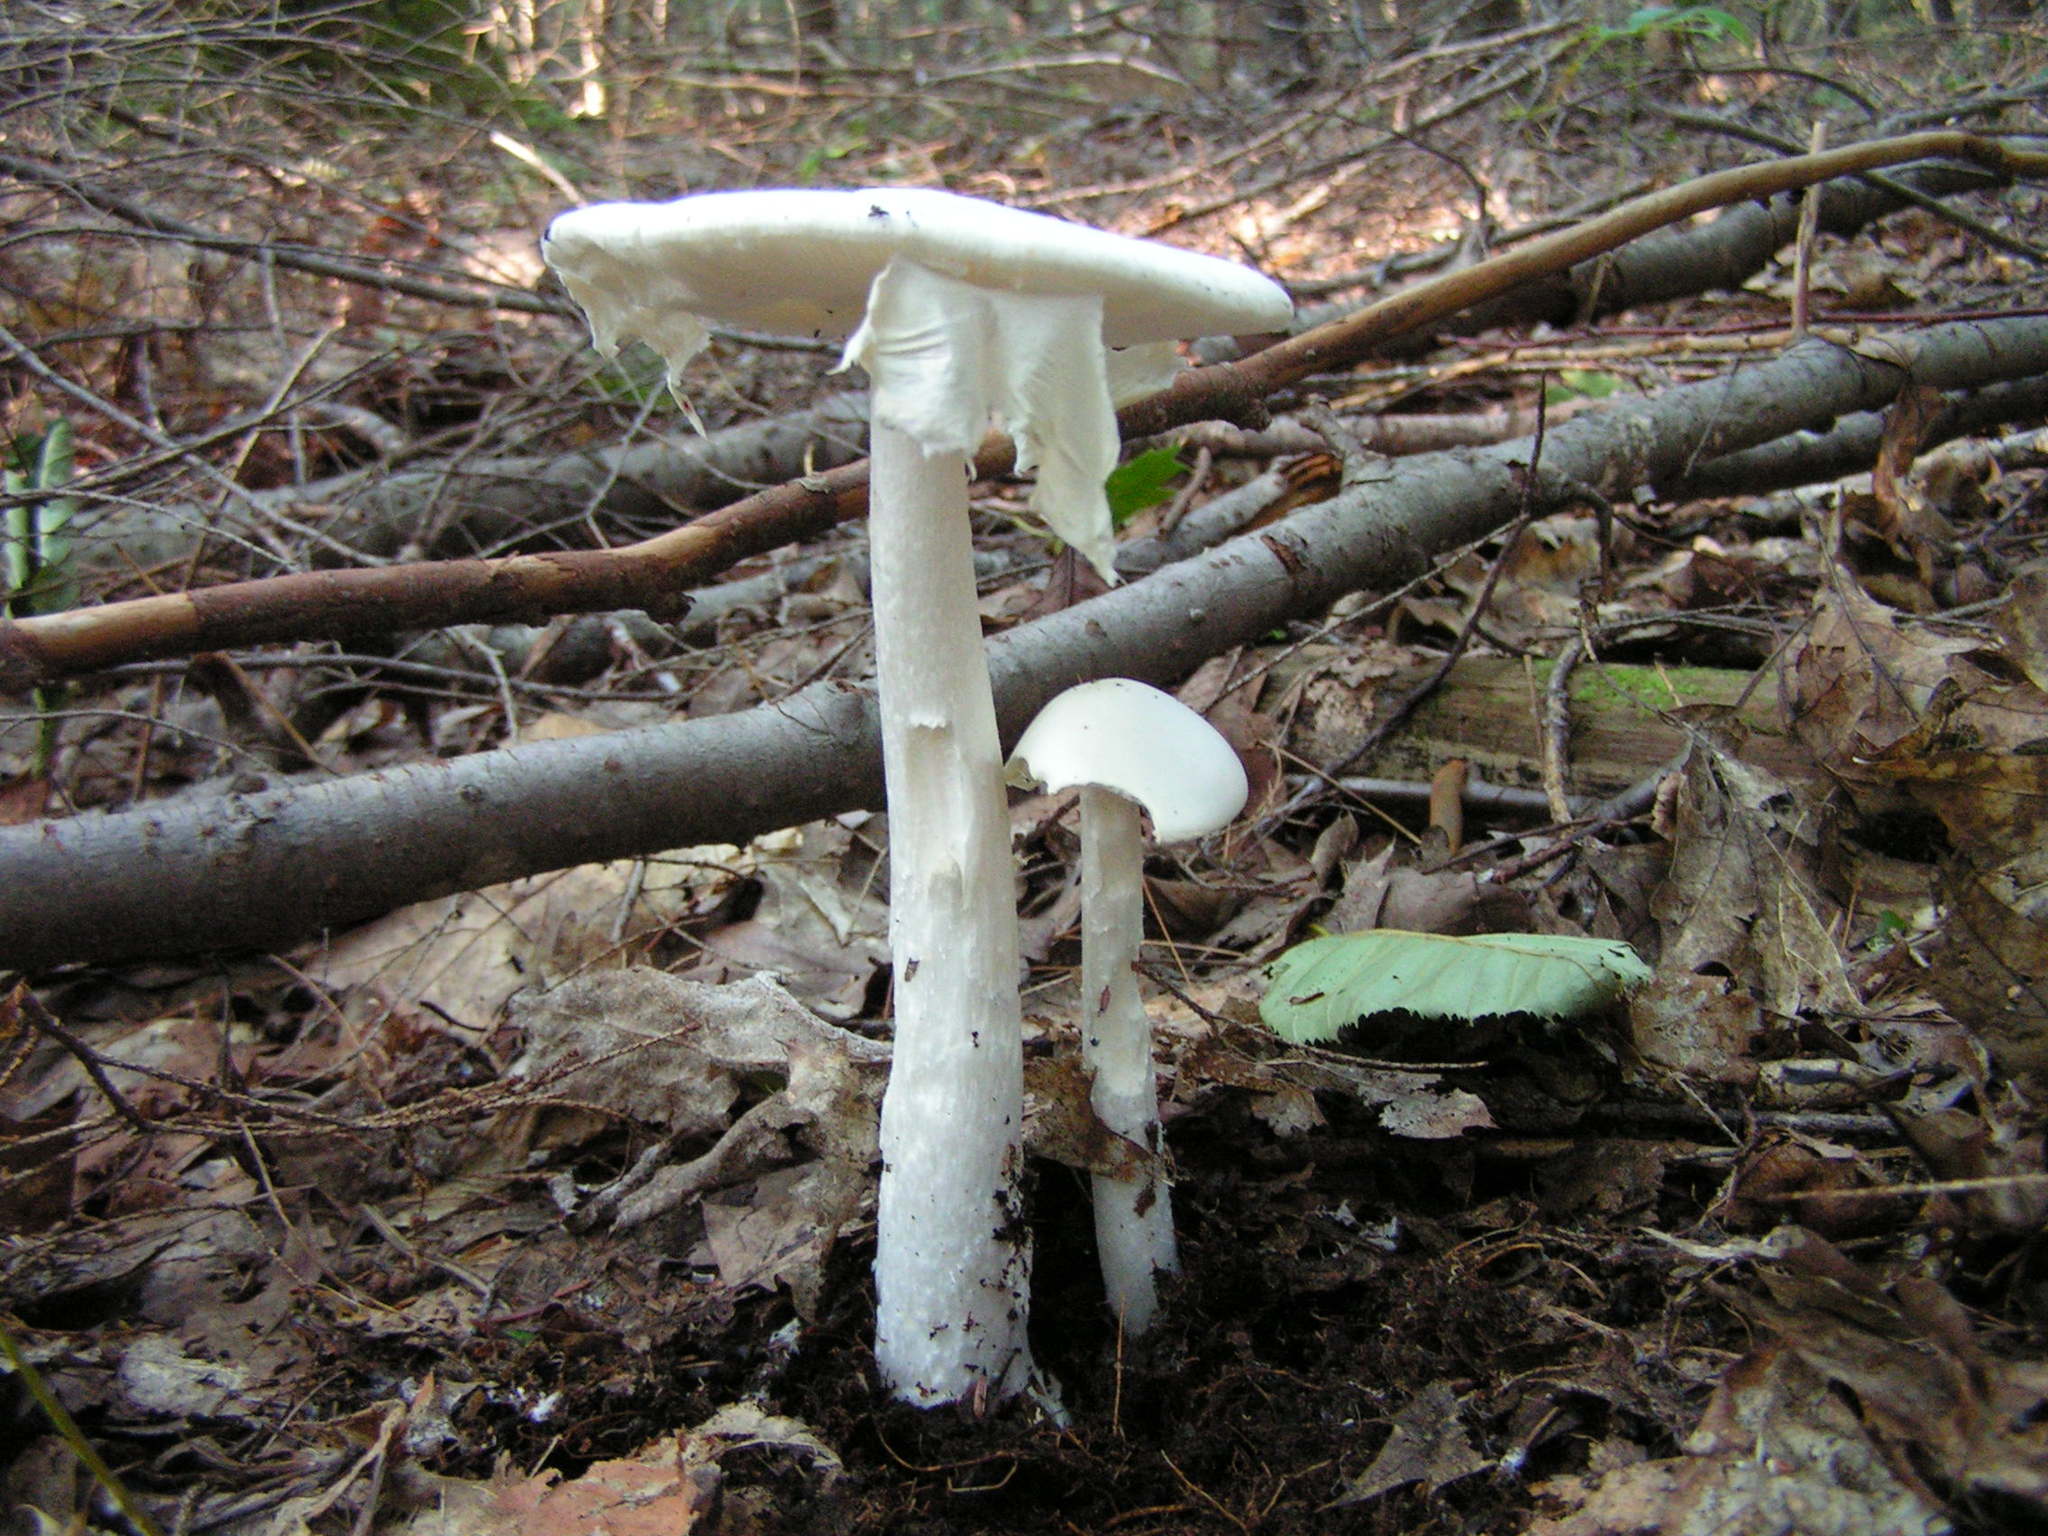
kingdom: Fungi
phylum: Basidiomycota
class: Agaricomycetes
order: Agaricales
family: Amanitaceae
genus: Amanita
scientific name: Amanita bisporigera
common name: Eastern north american destroying angel
